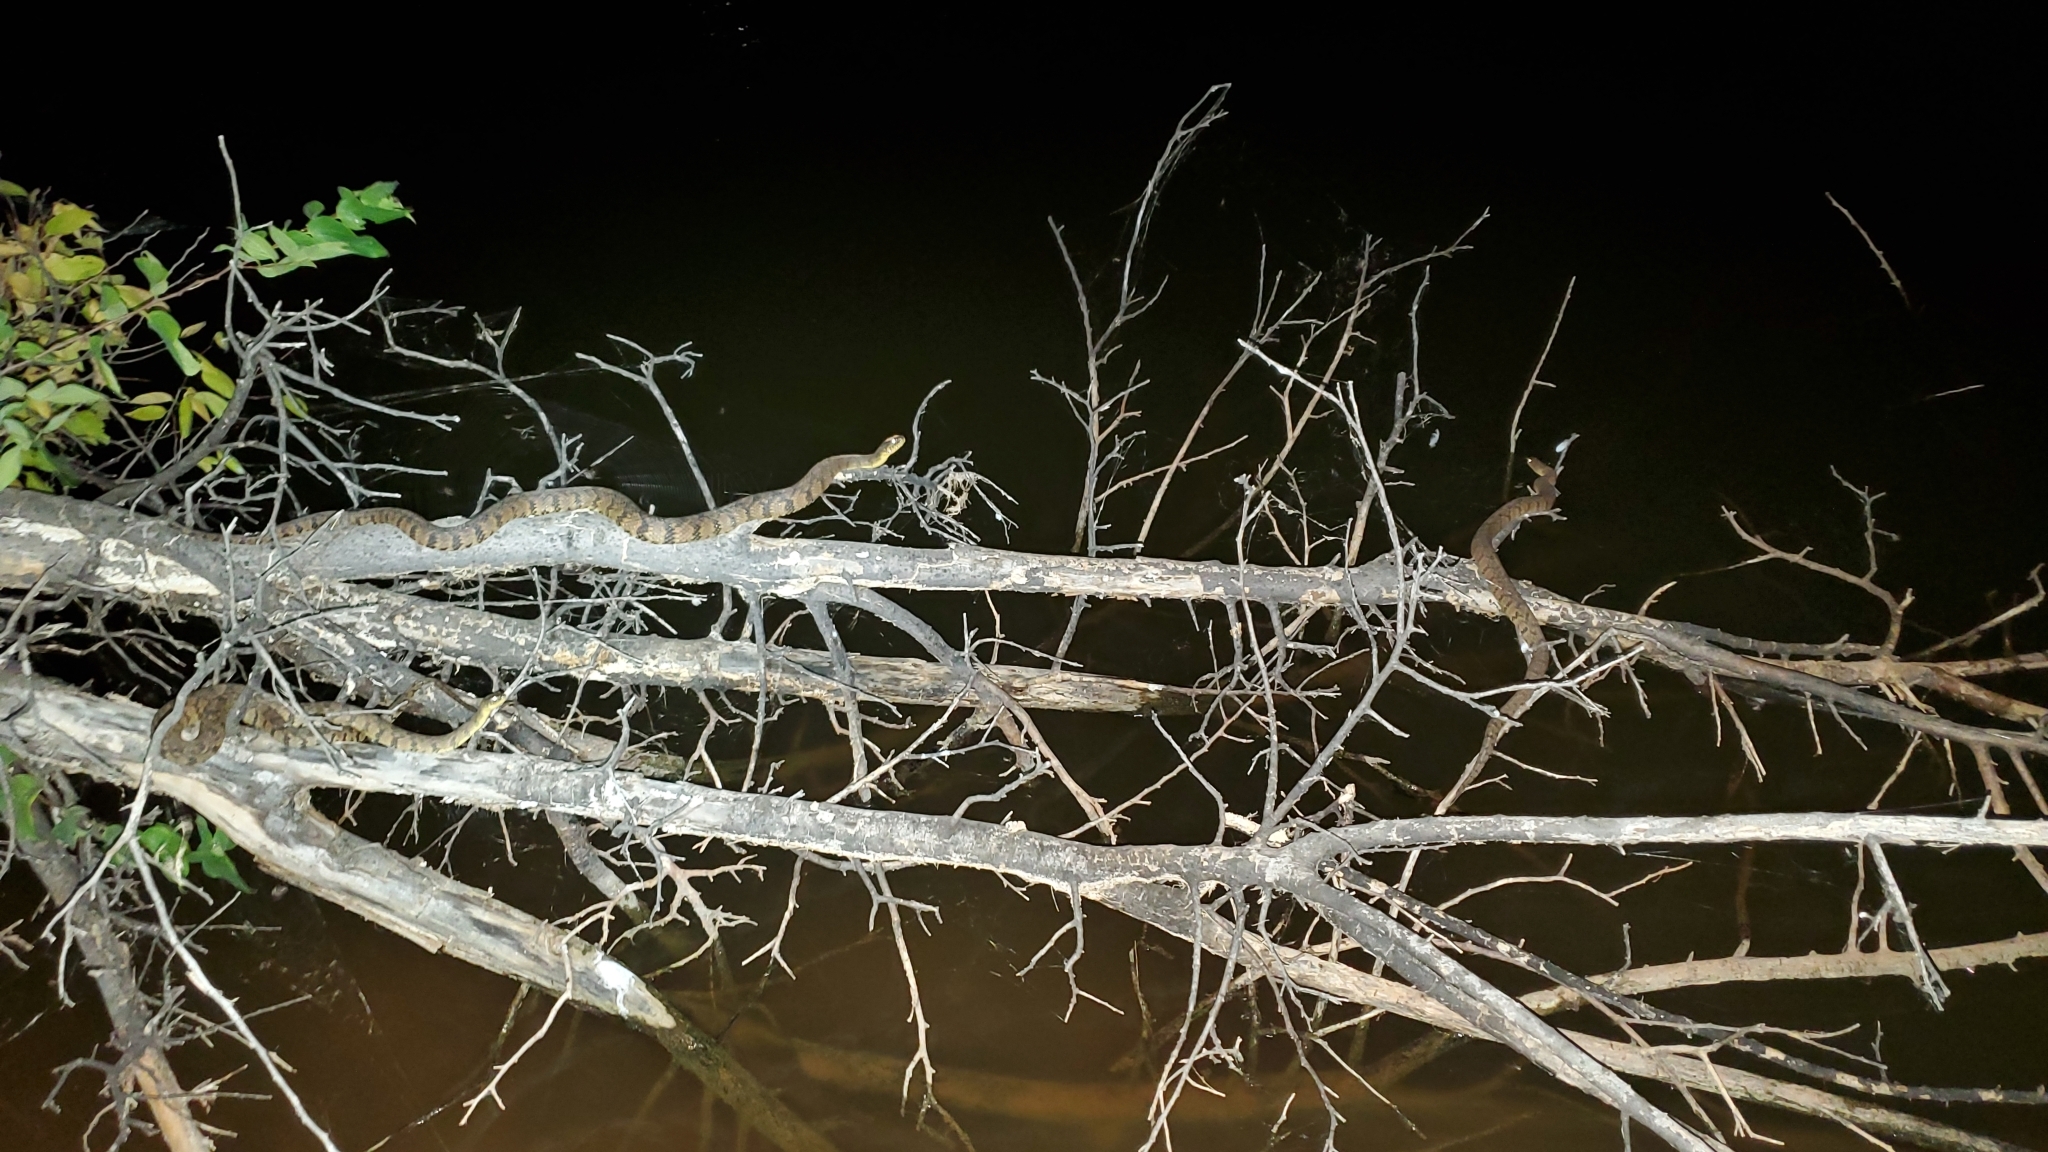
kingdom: Animalia
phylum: Chordata
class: Squamata
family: Colubridae
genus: Nerodia
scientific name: Nerodia rhombifer
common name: Diamondback water snake
